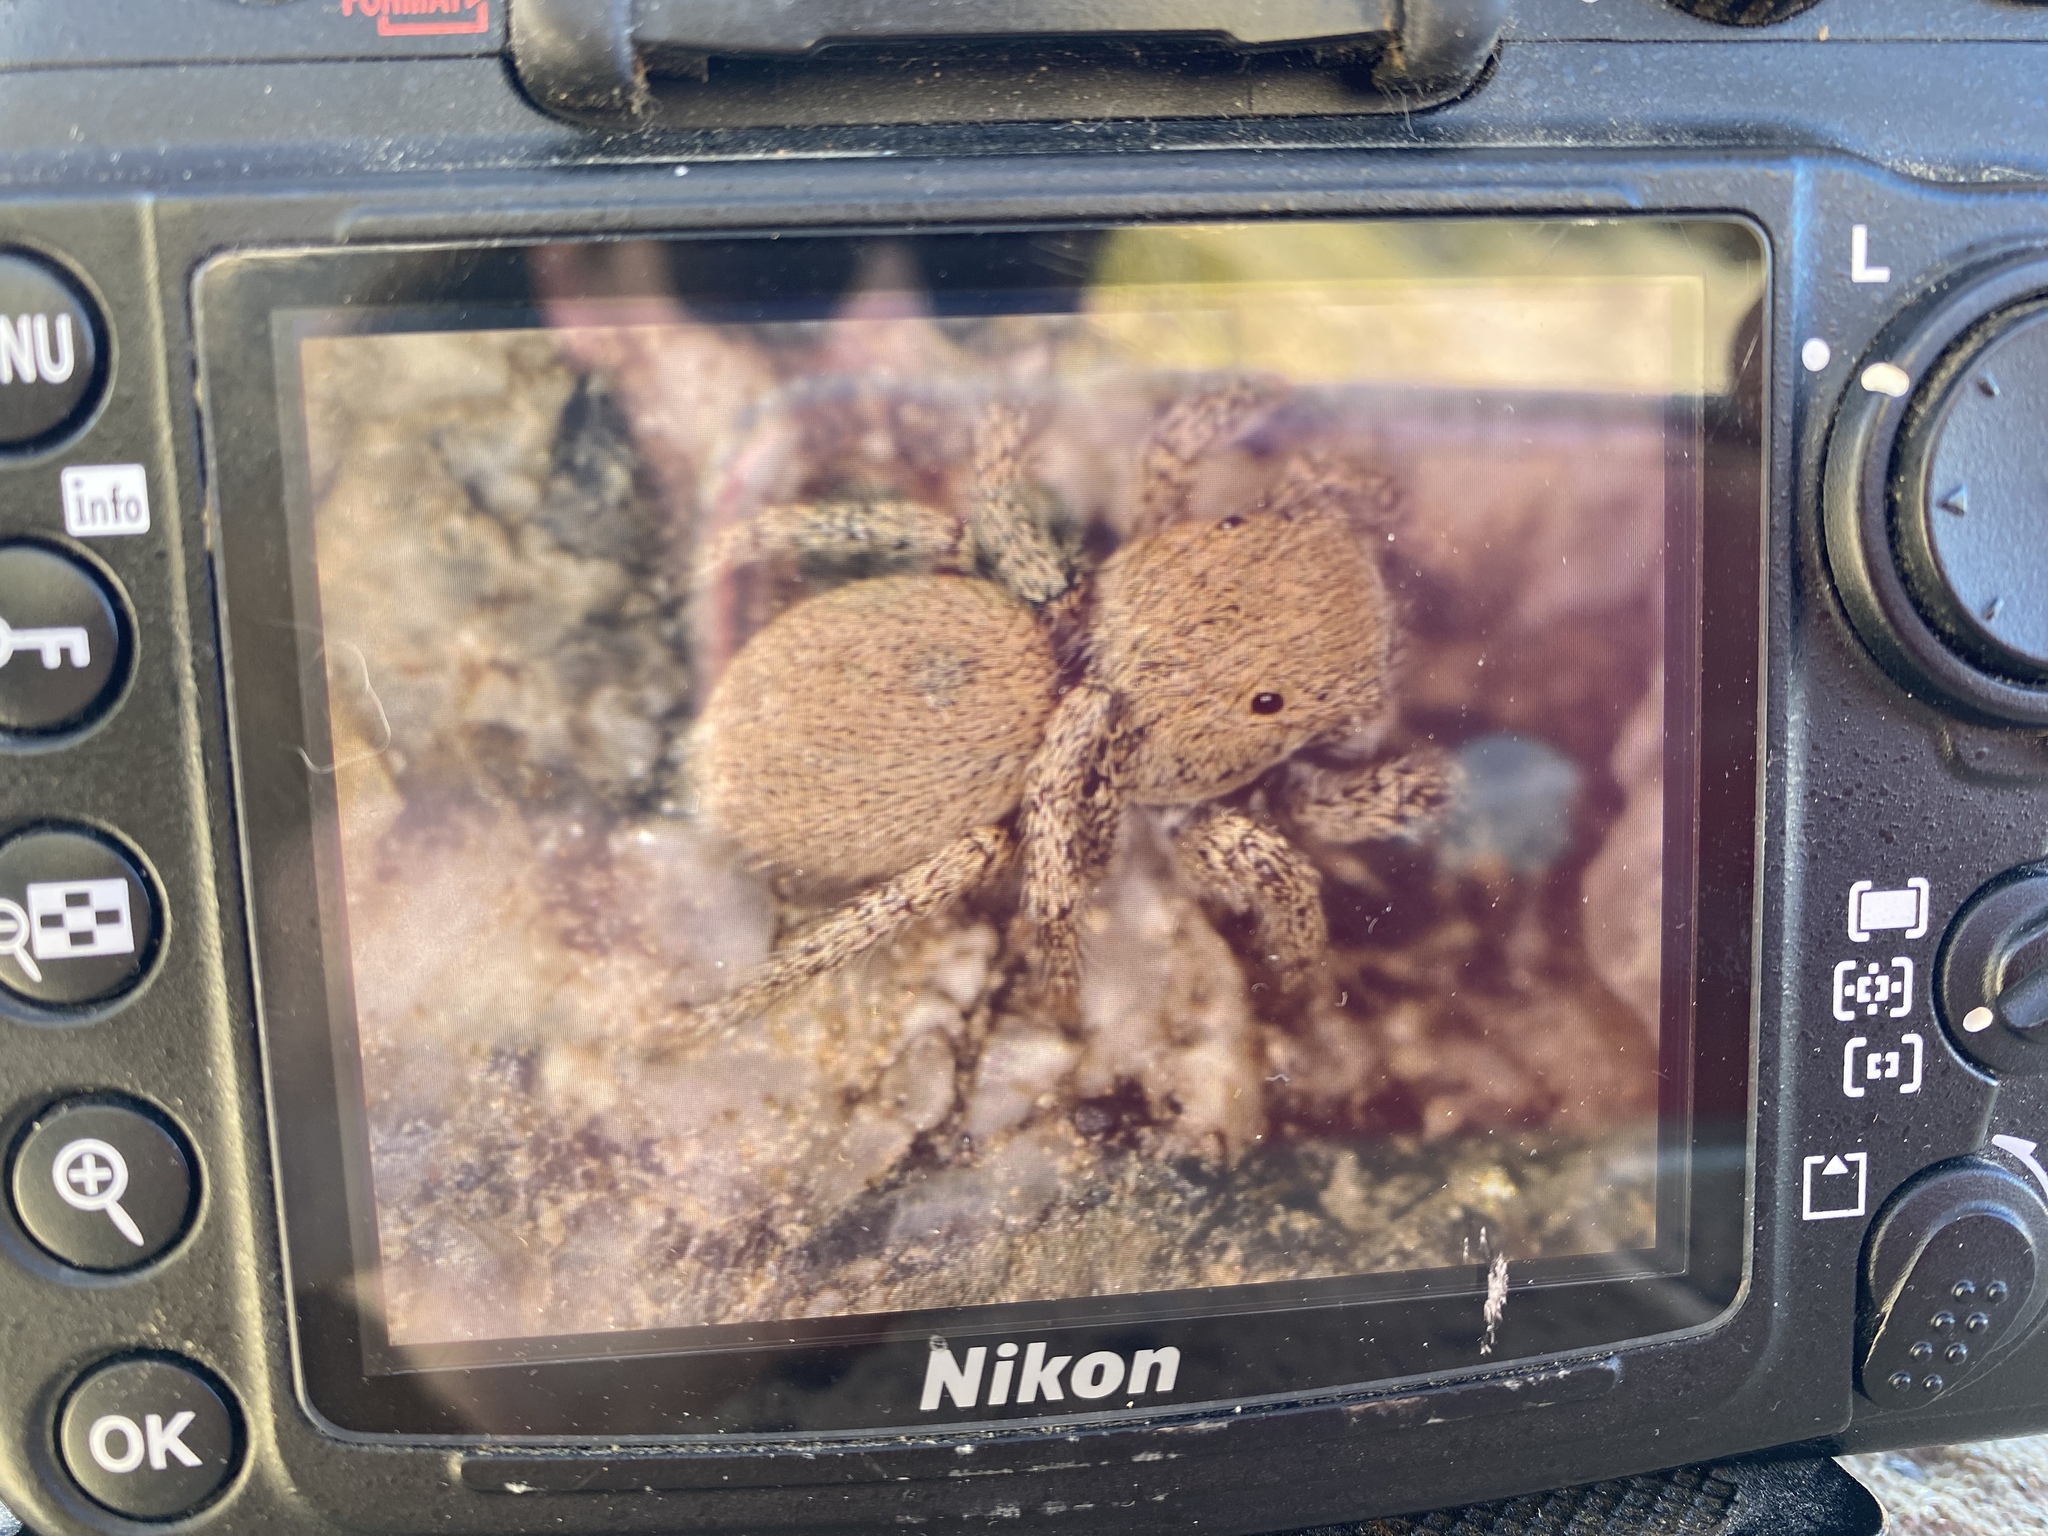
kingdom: Animalia
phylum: Arthropoda
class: Arachnida
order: Araneae
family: Salticidae
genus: Habronattus
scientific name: Habronattus clypeatus
